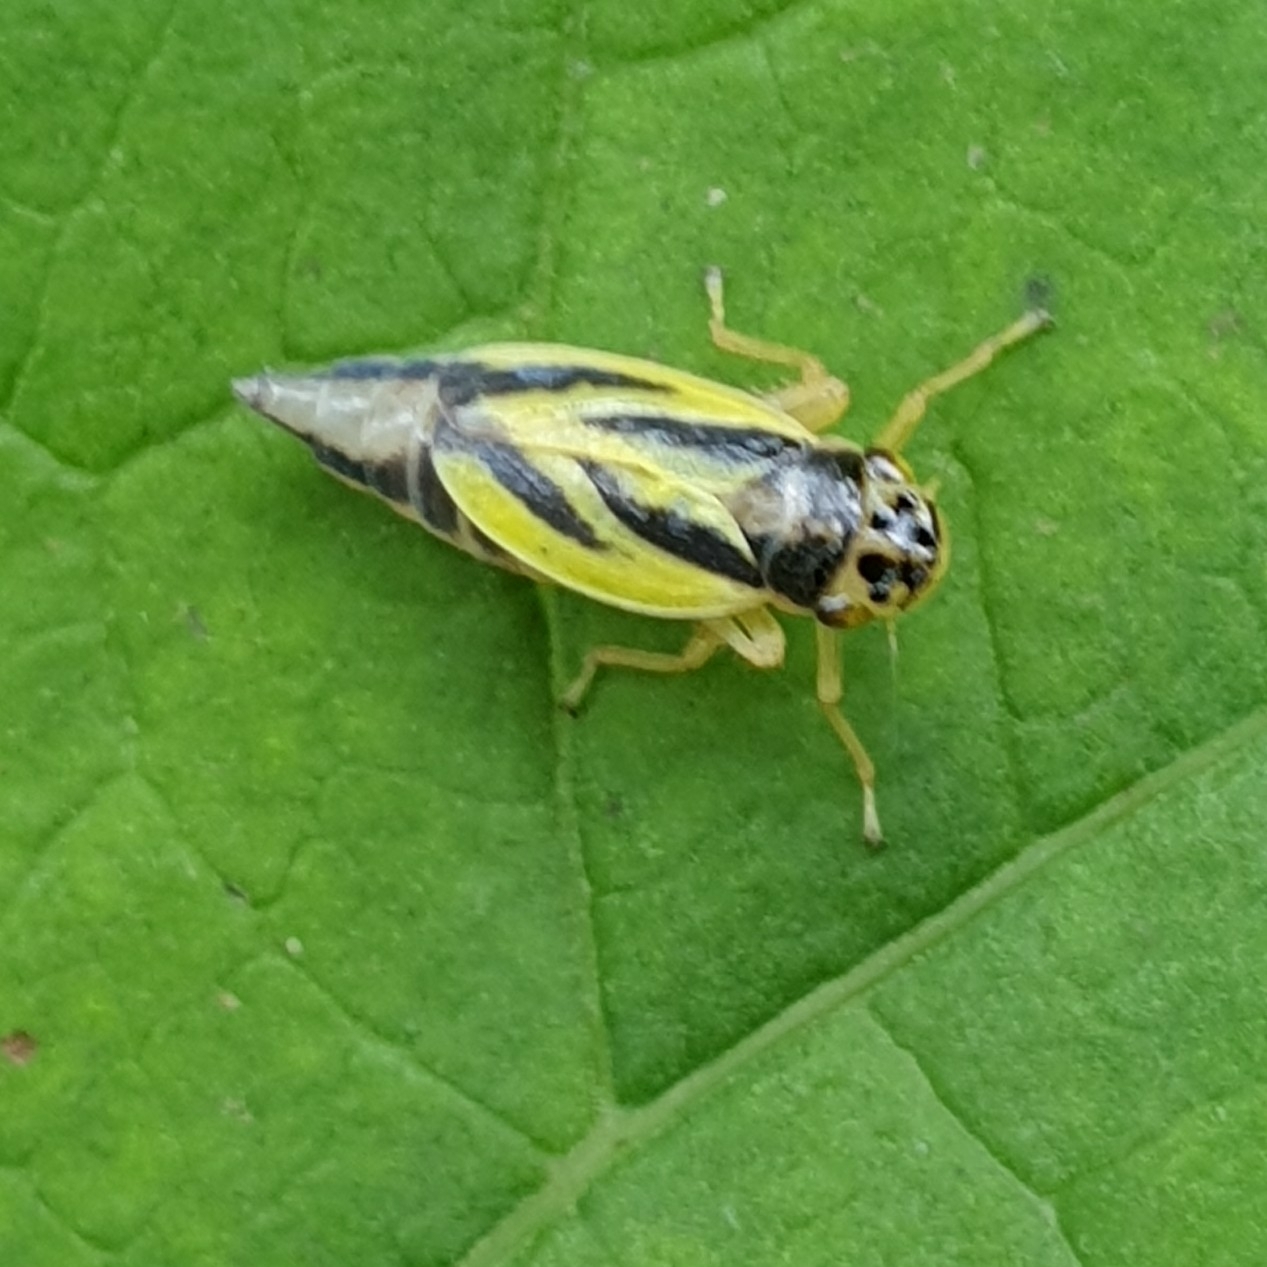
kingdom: Animalia
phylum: Arthropoda
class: Insecta
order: Hemiptera
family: Cicadellidae
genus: Evacanthus
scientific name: Evacanthus interruptus
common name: Leafhopper
